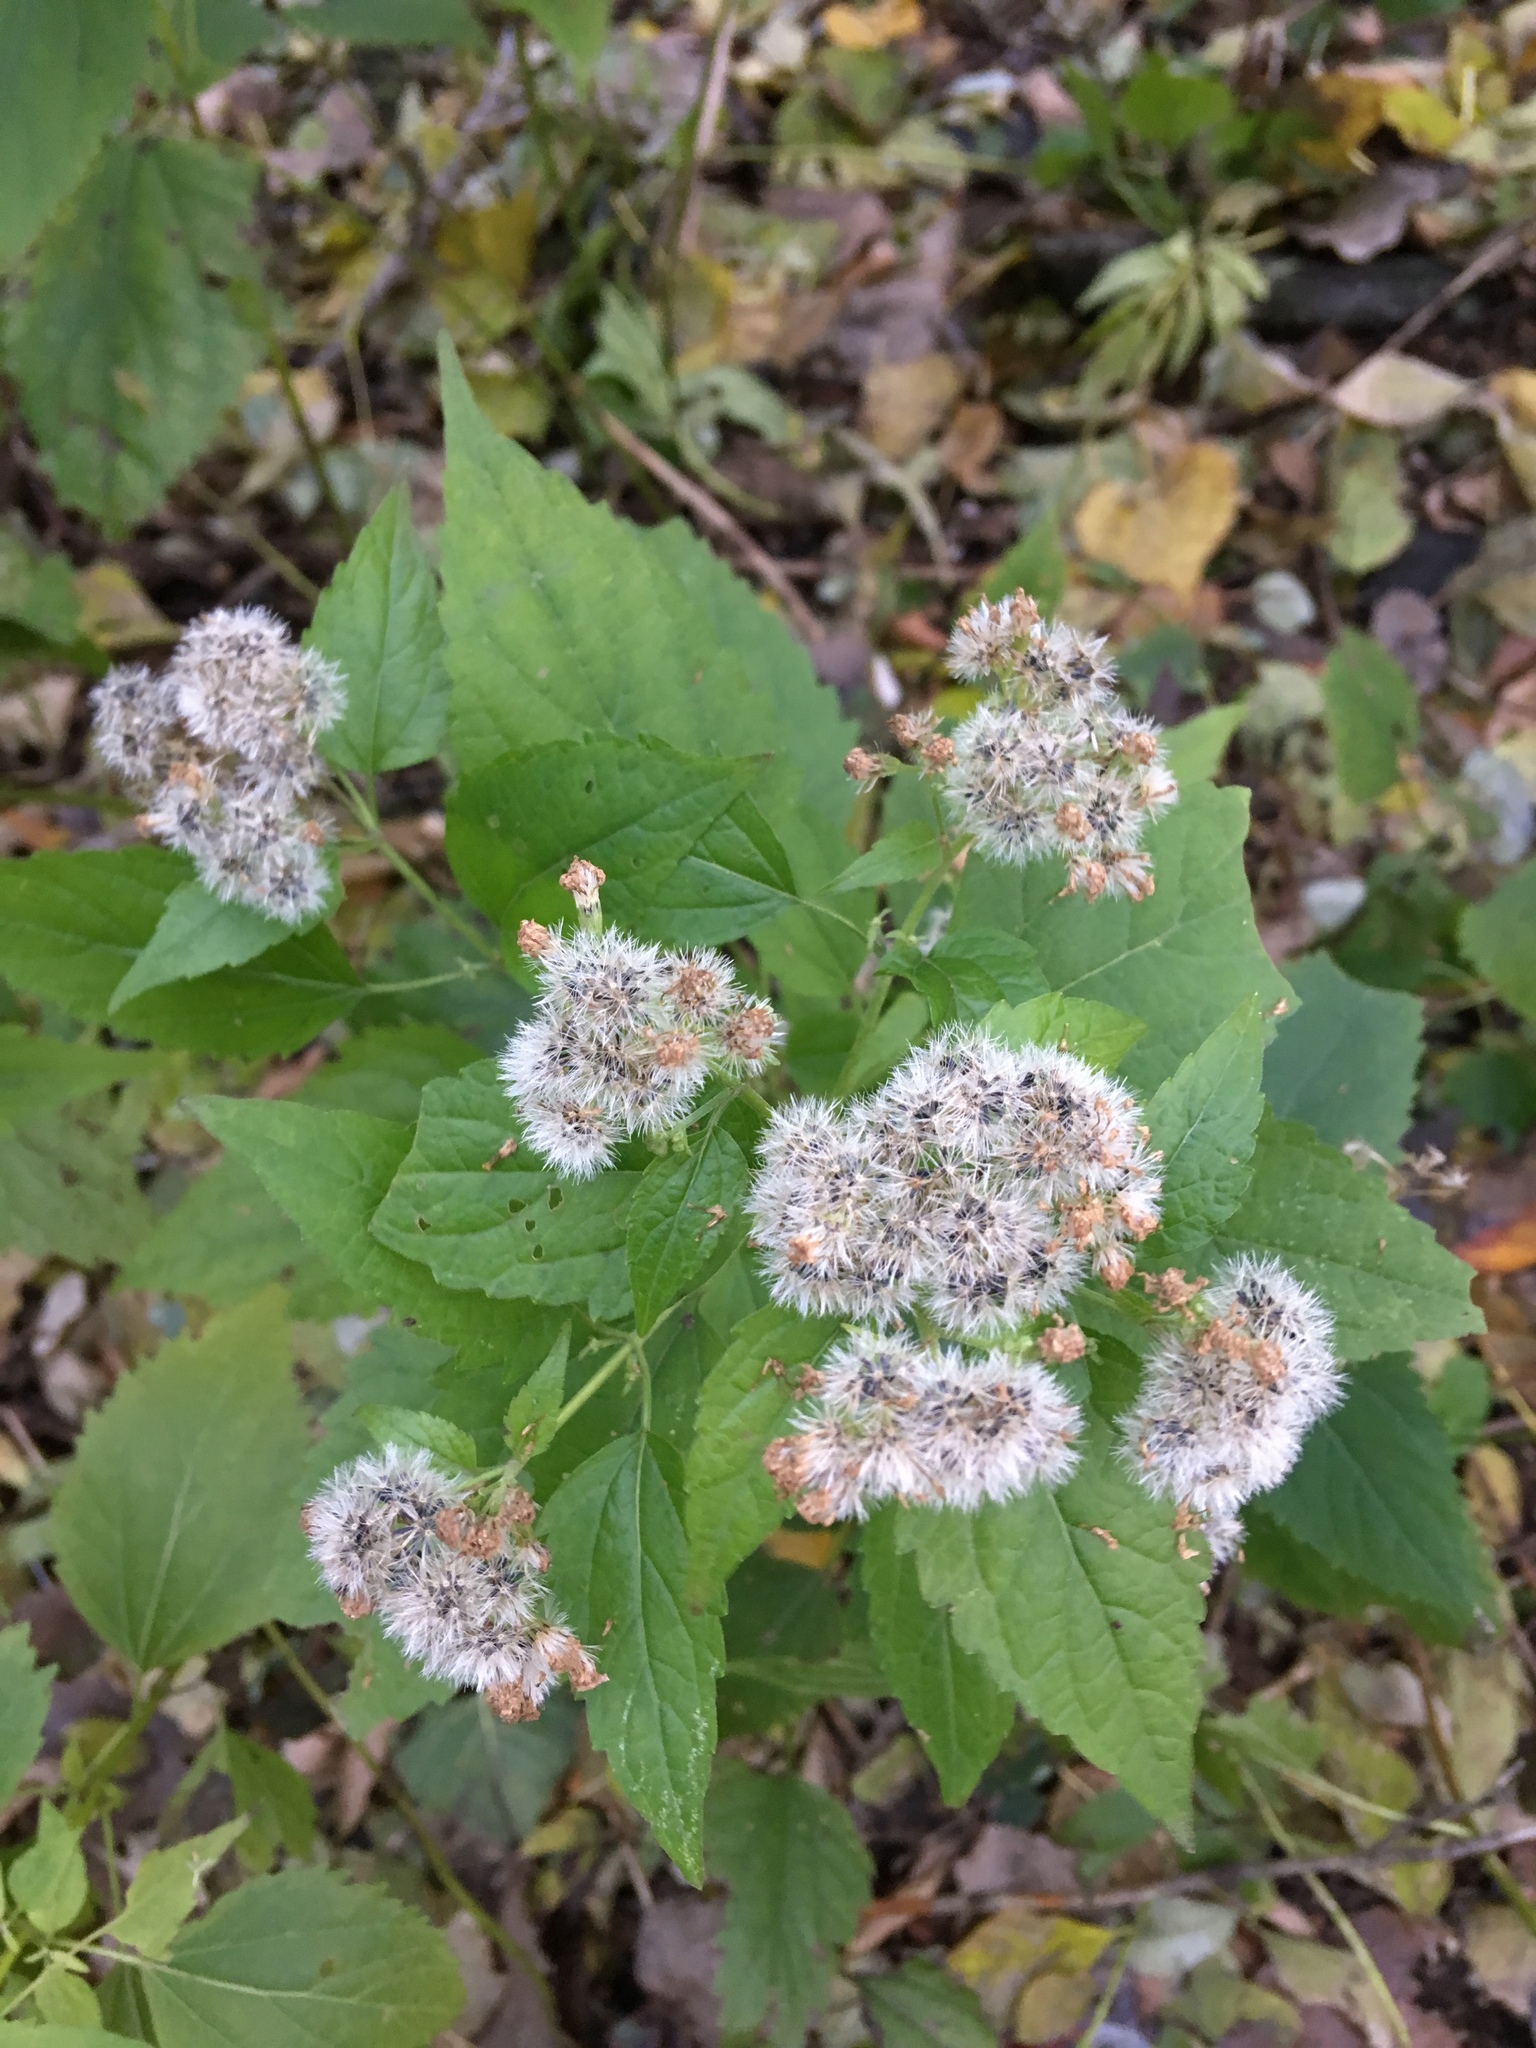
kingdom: Plantae
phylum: Tracheophyta
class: Magnoliopsida
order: Asterales
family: Asteraceae
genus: Ageratina
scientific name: Ageratina altissima
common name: White snakeroot
